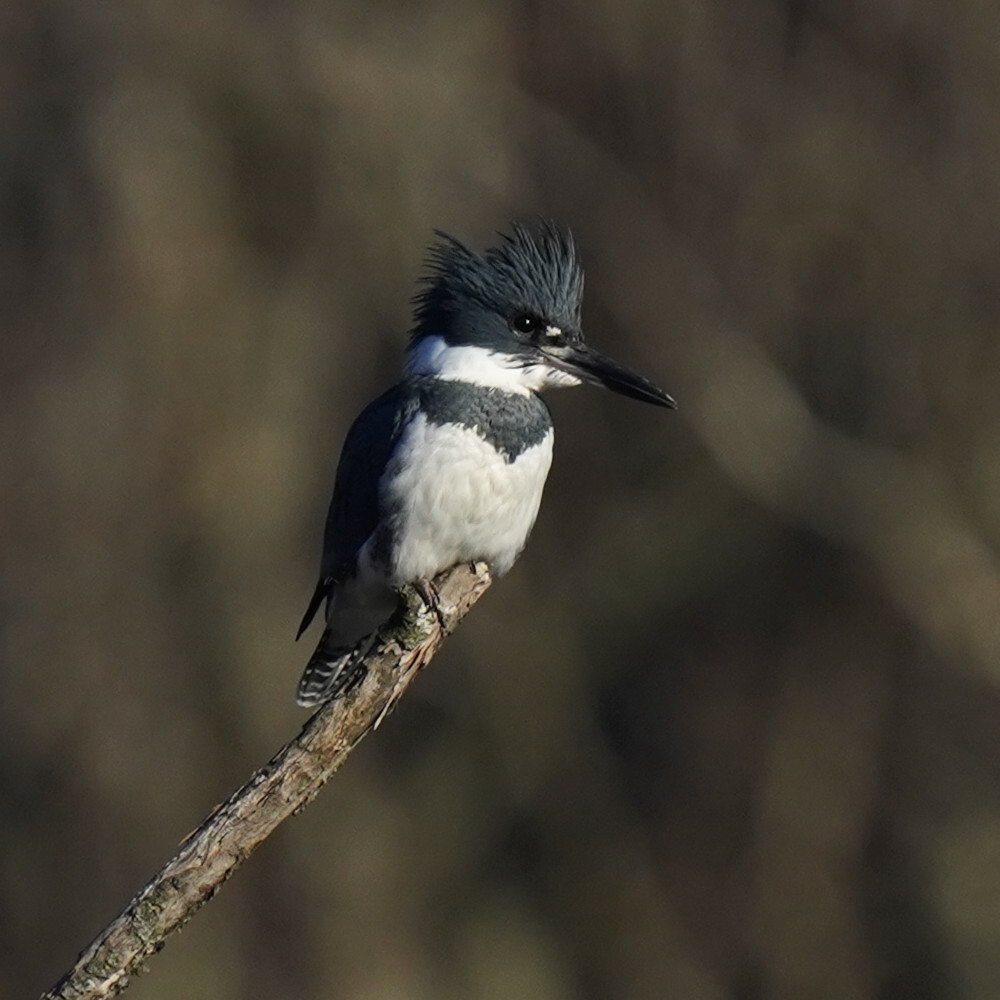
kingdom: Animalia
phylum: Chordata
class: Aves
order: Coraciiformes
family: Alcedinidae
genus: Megaceryle
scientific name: Megaceryle alcyon
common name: Belted kingfisher
